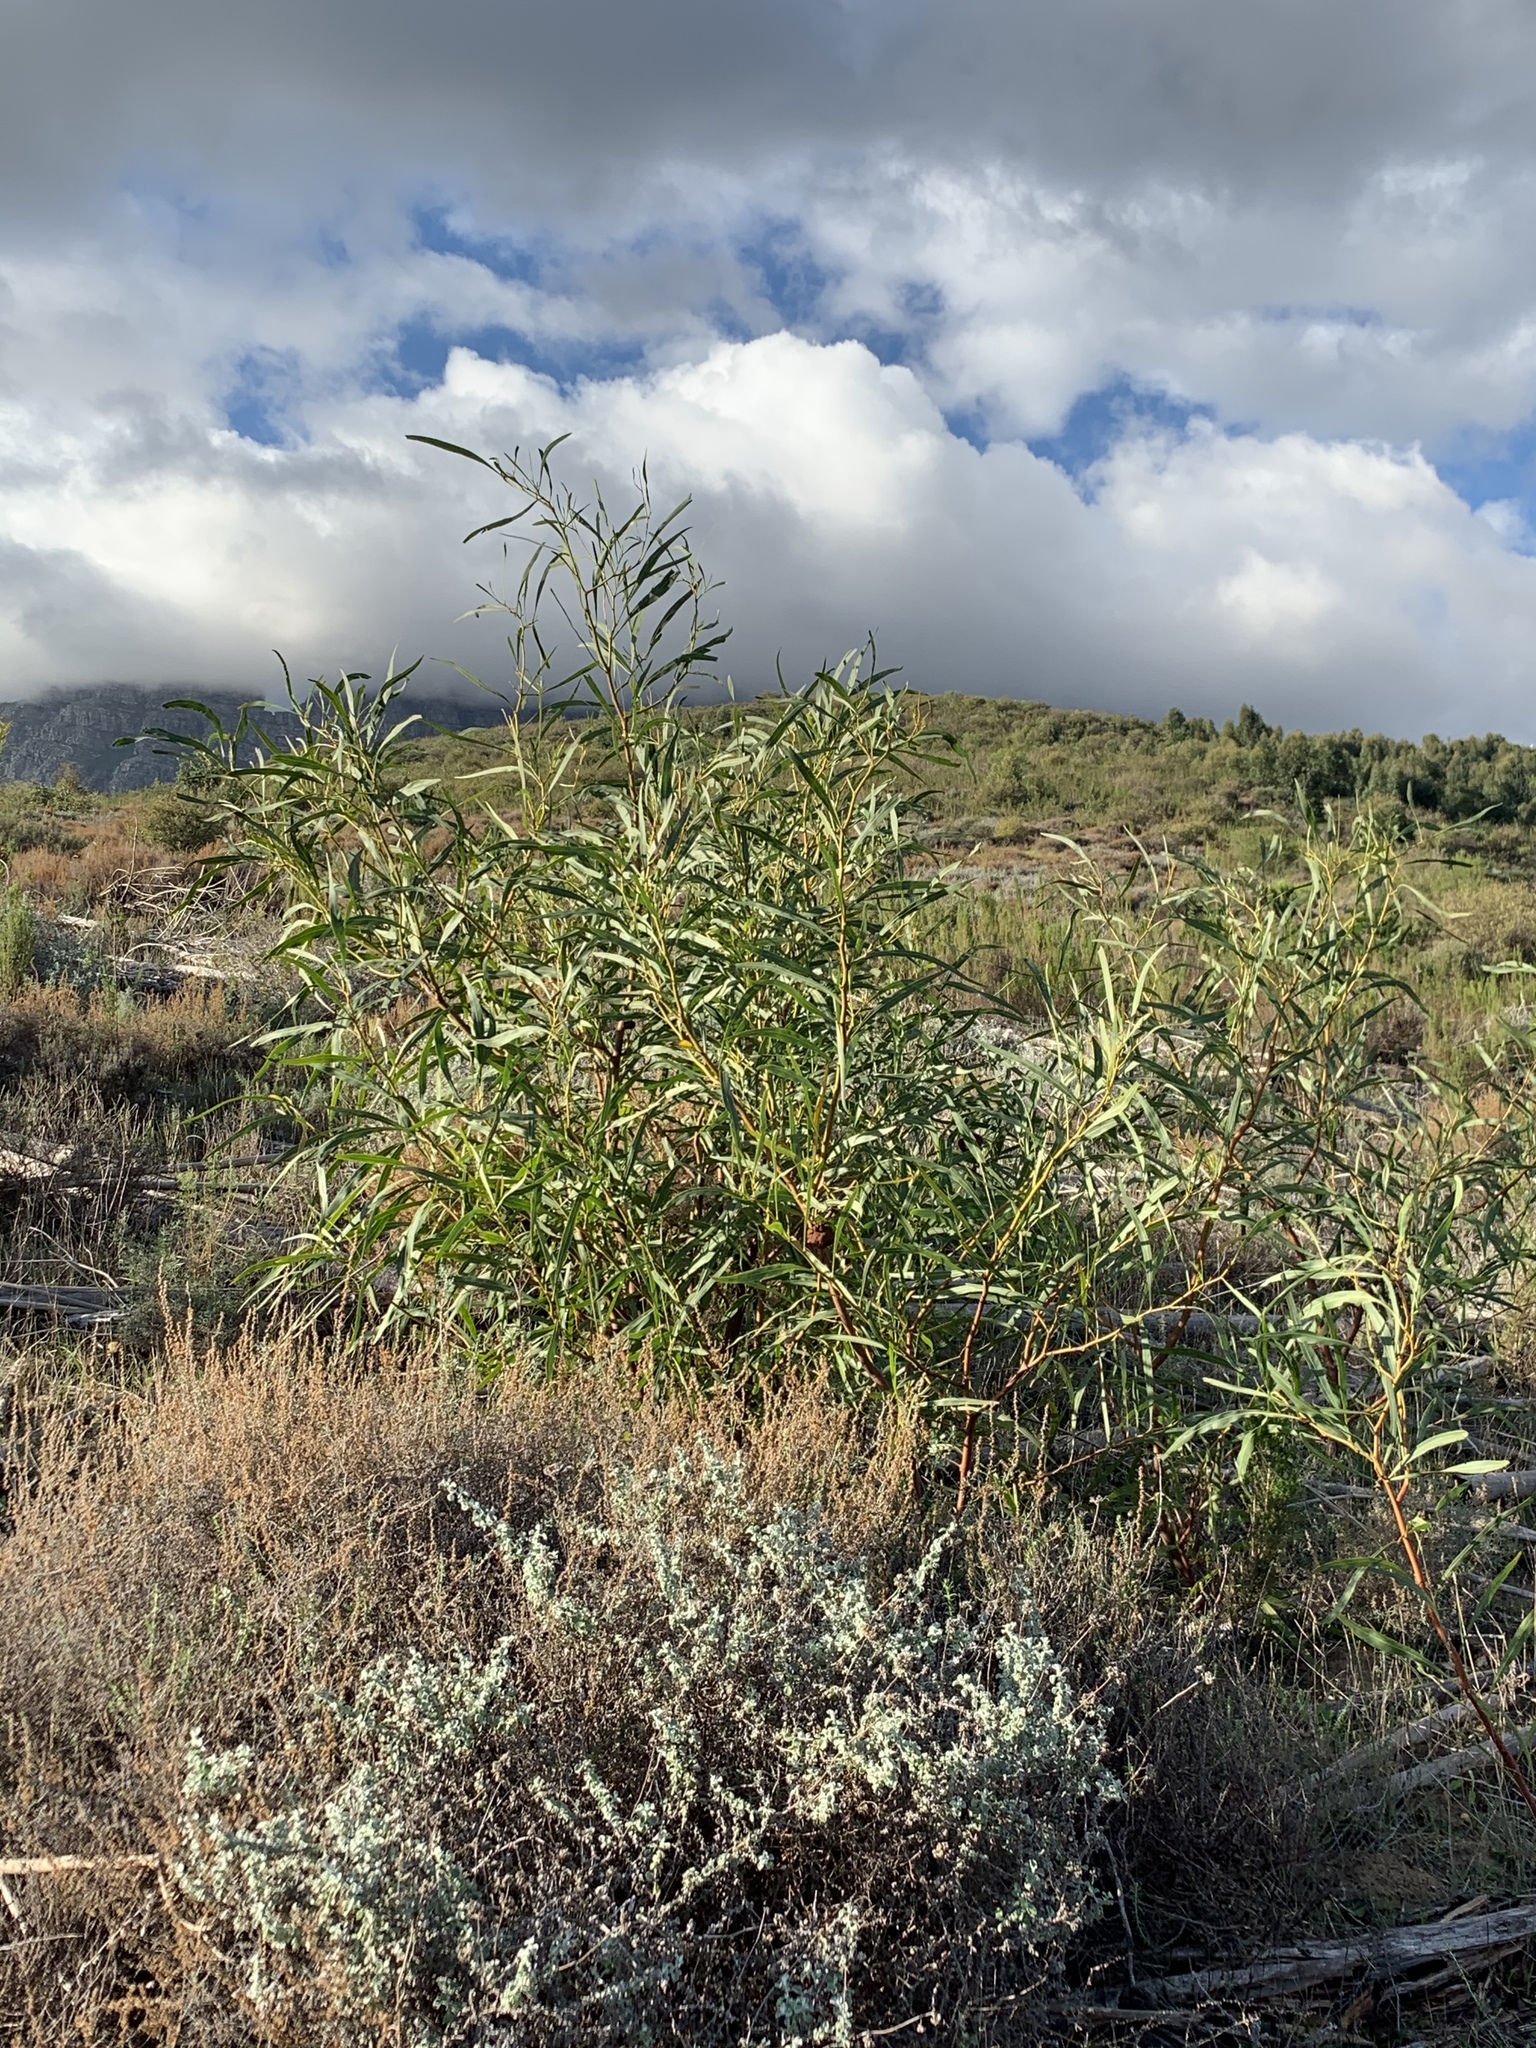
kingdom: Plantae
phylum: Tracheophyta
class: Magnoliopsida
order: Fabales
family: Fabaceae
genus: Acacia
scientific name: Acacia saligna
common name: Orange wattle
